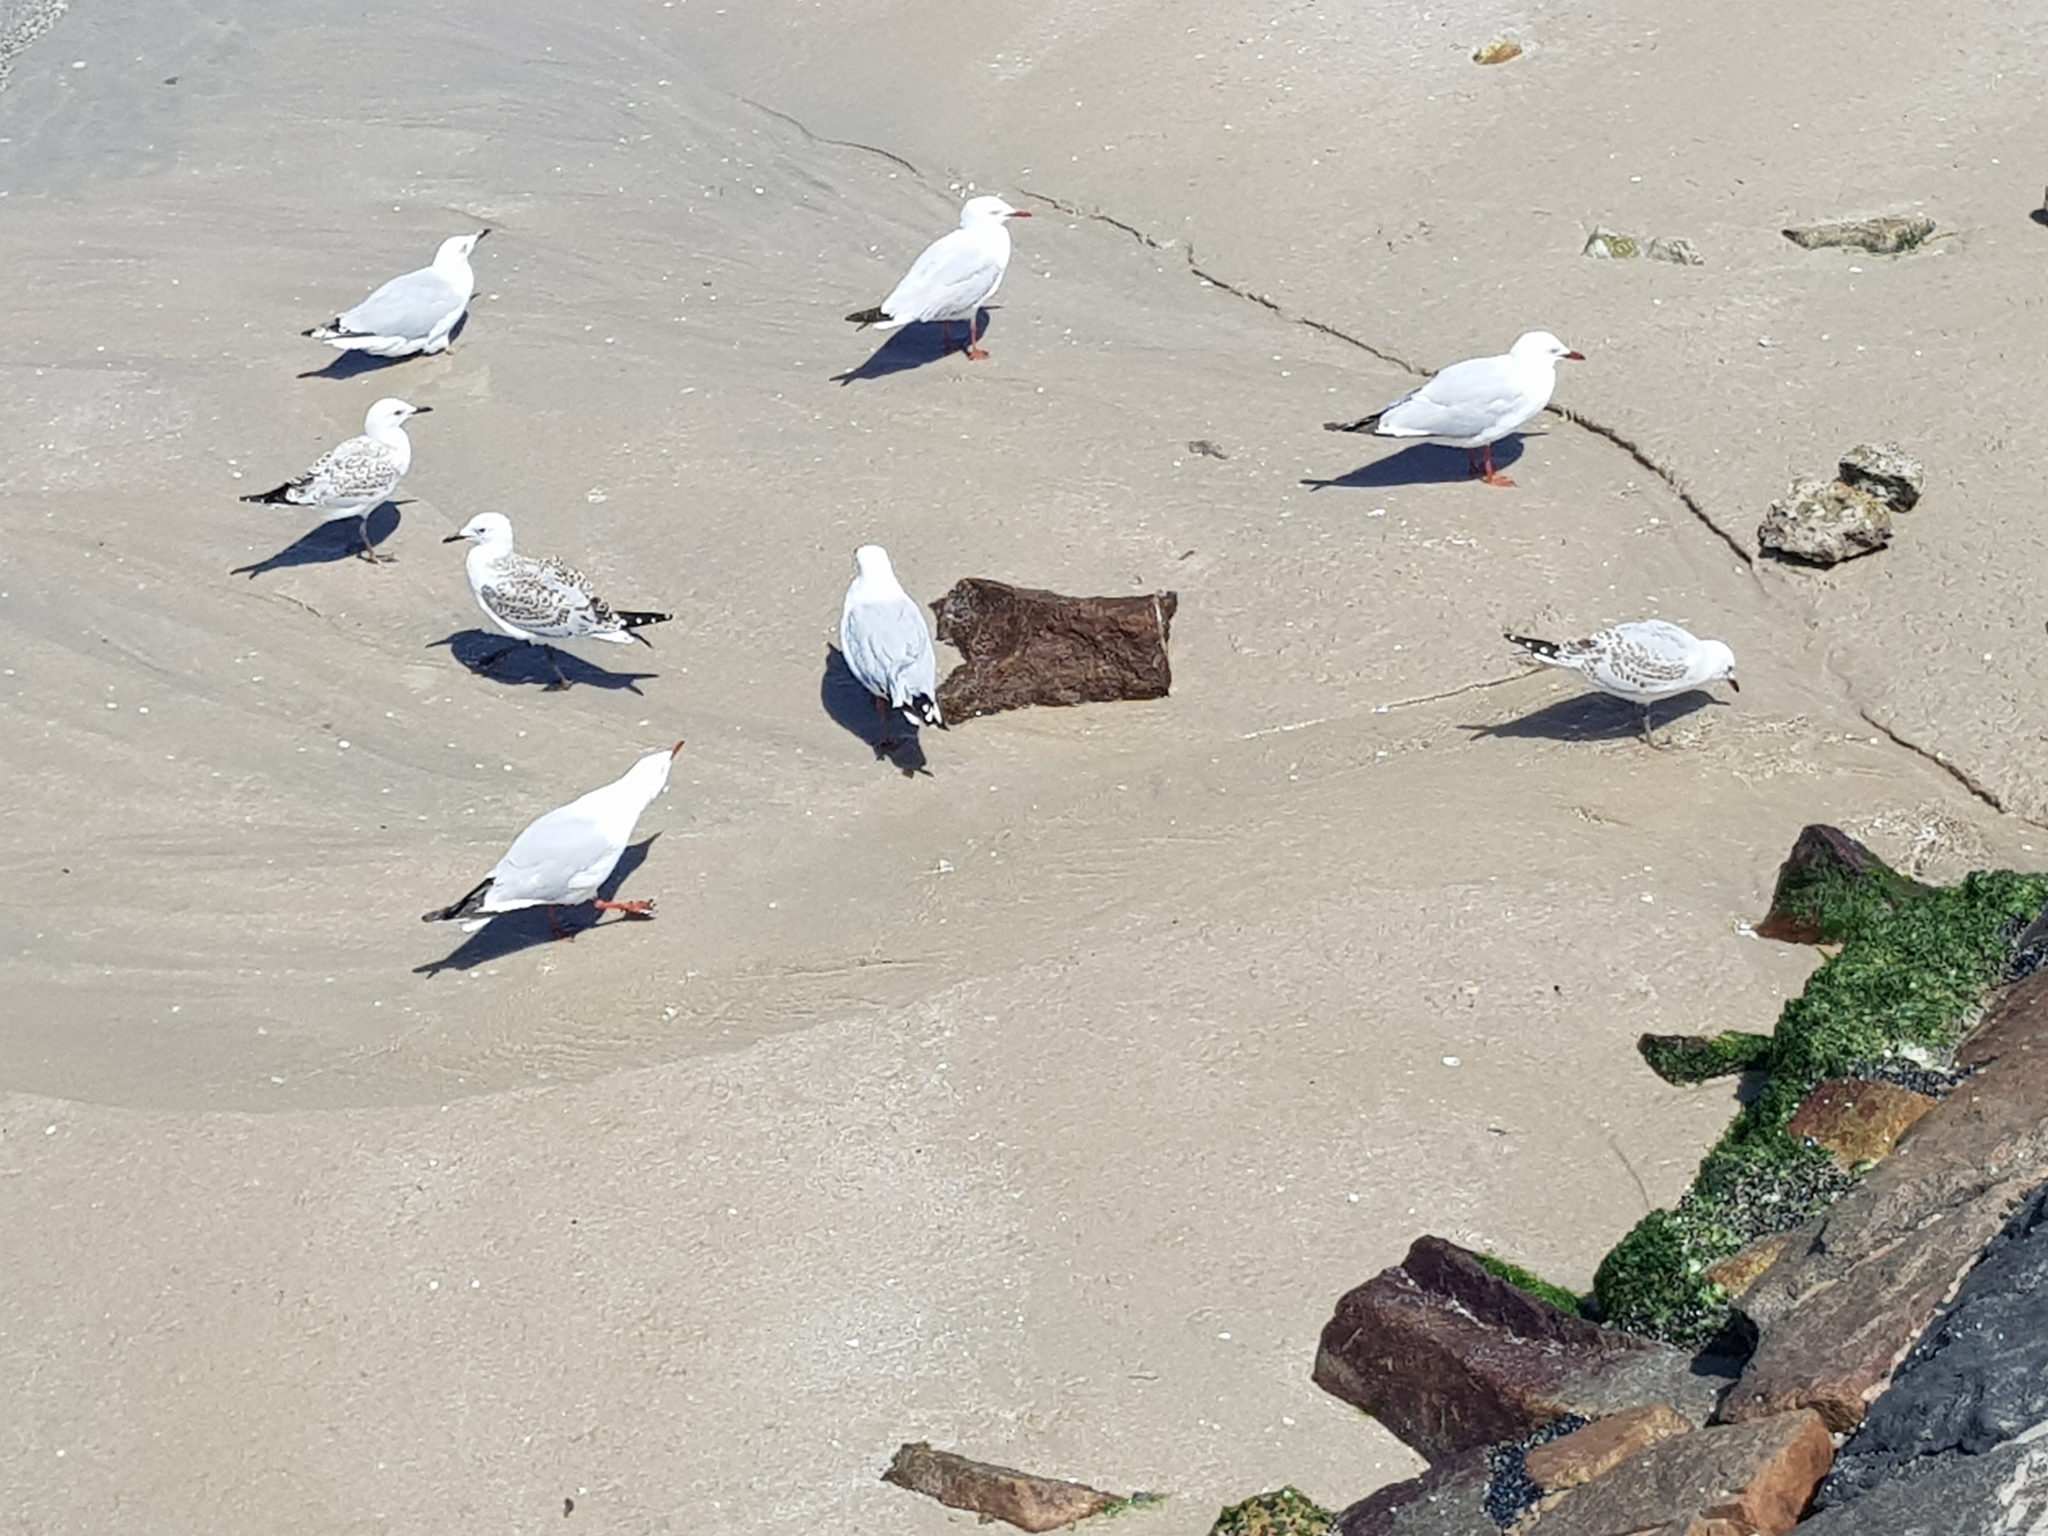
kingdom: Animalia
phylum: Chordata
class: Aves
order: Charadriiformes
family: Laridae
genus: Chroicocephalus
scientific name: Chroicocephalus novaehollandiae
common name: Silver gull
